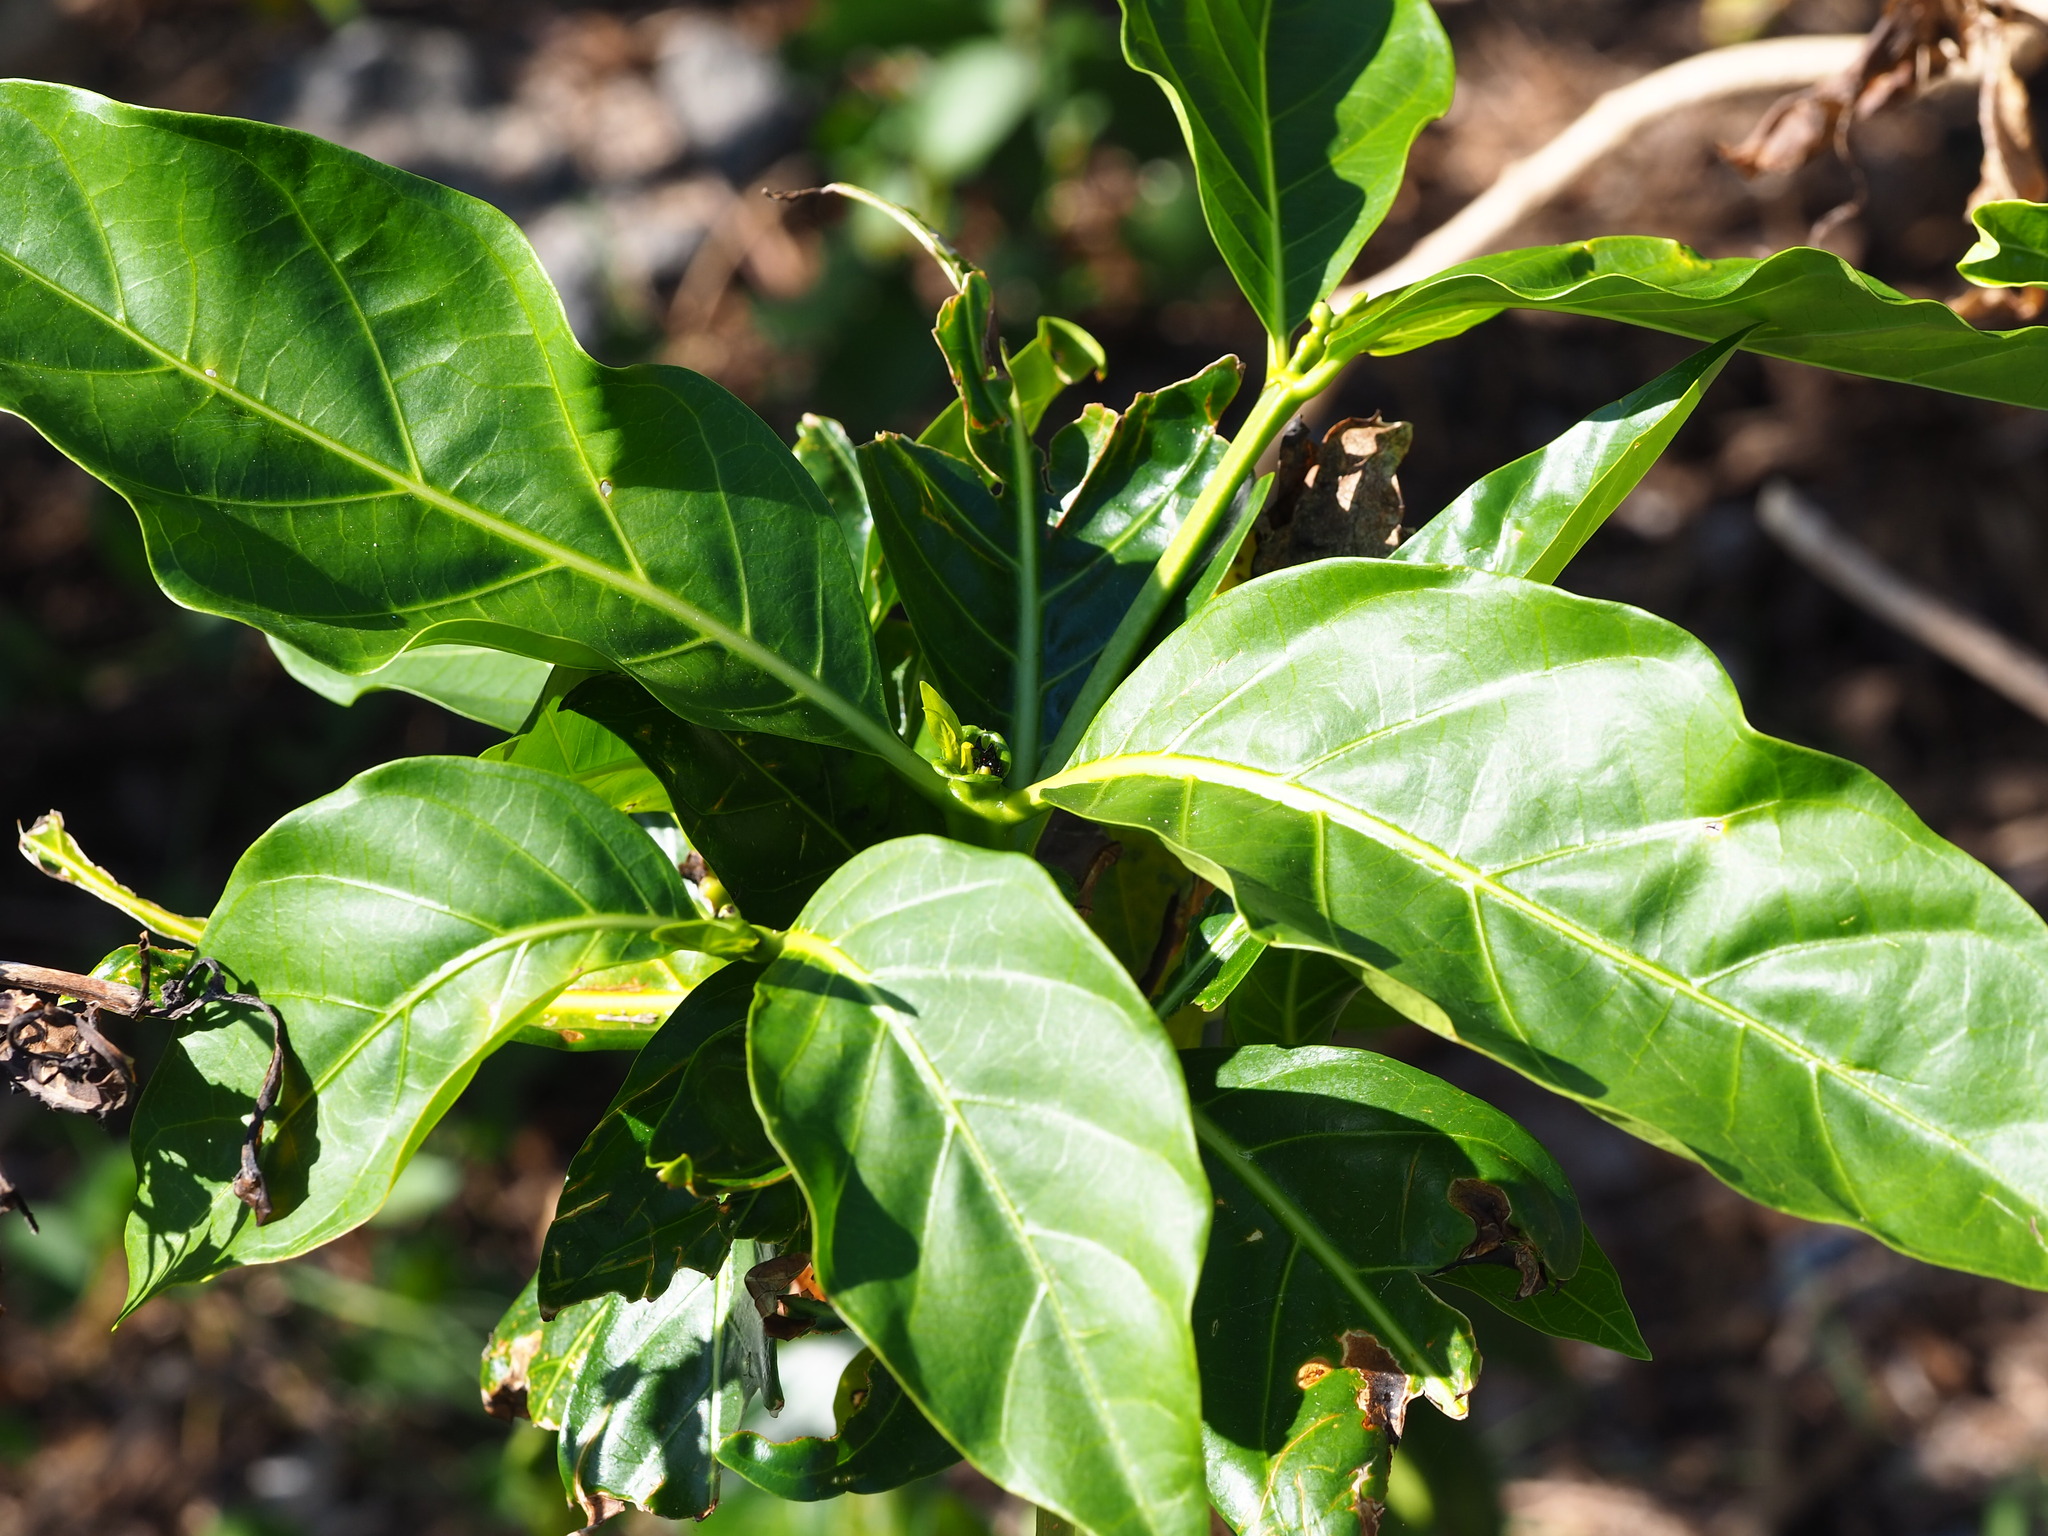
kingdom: Plantae
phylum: Tracheophyta
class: Magnoliopsida
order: Gentianales
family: Rubiaceae
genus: Morinda
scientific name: Morinda citrifolia
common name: Indian-mulberry
